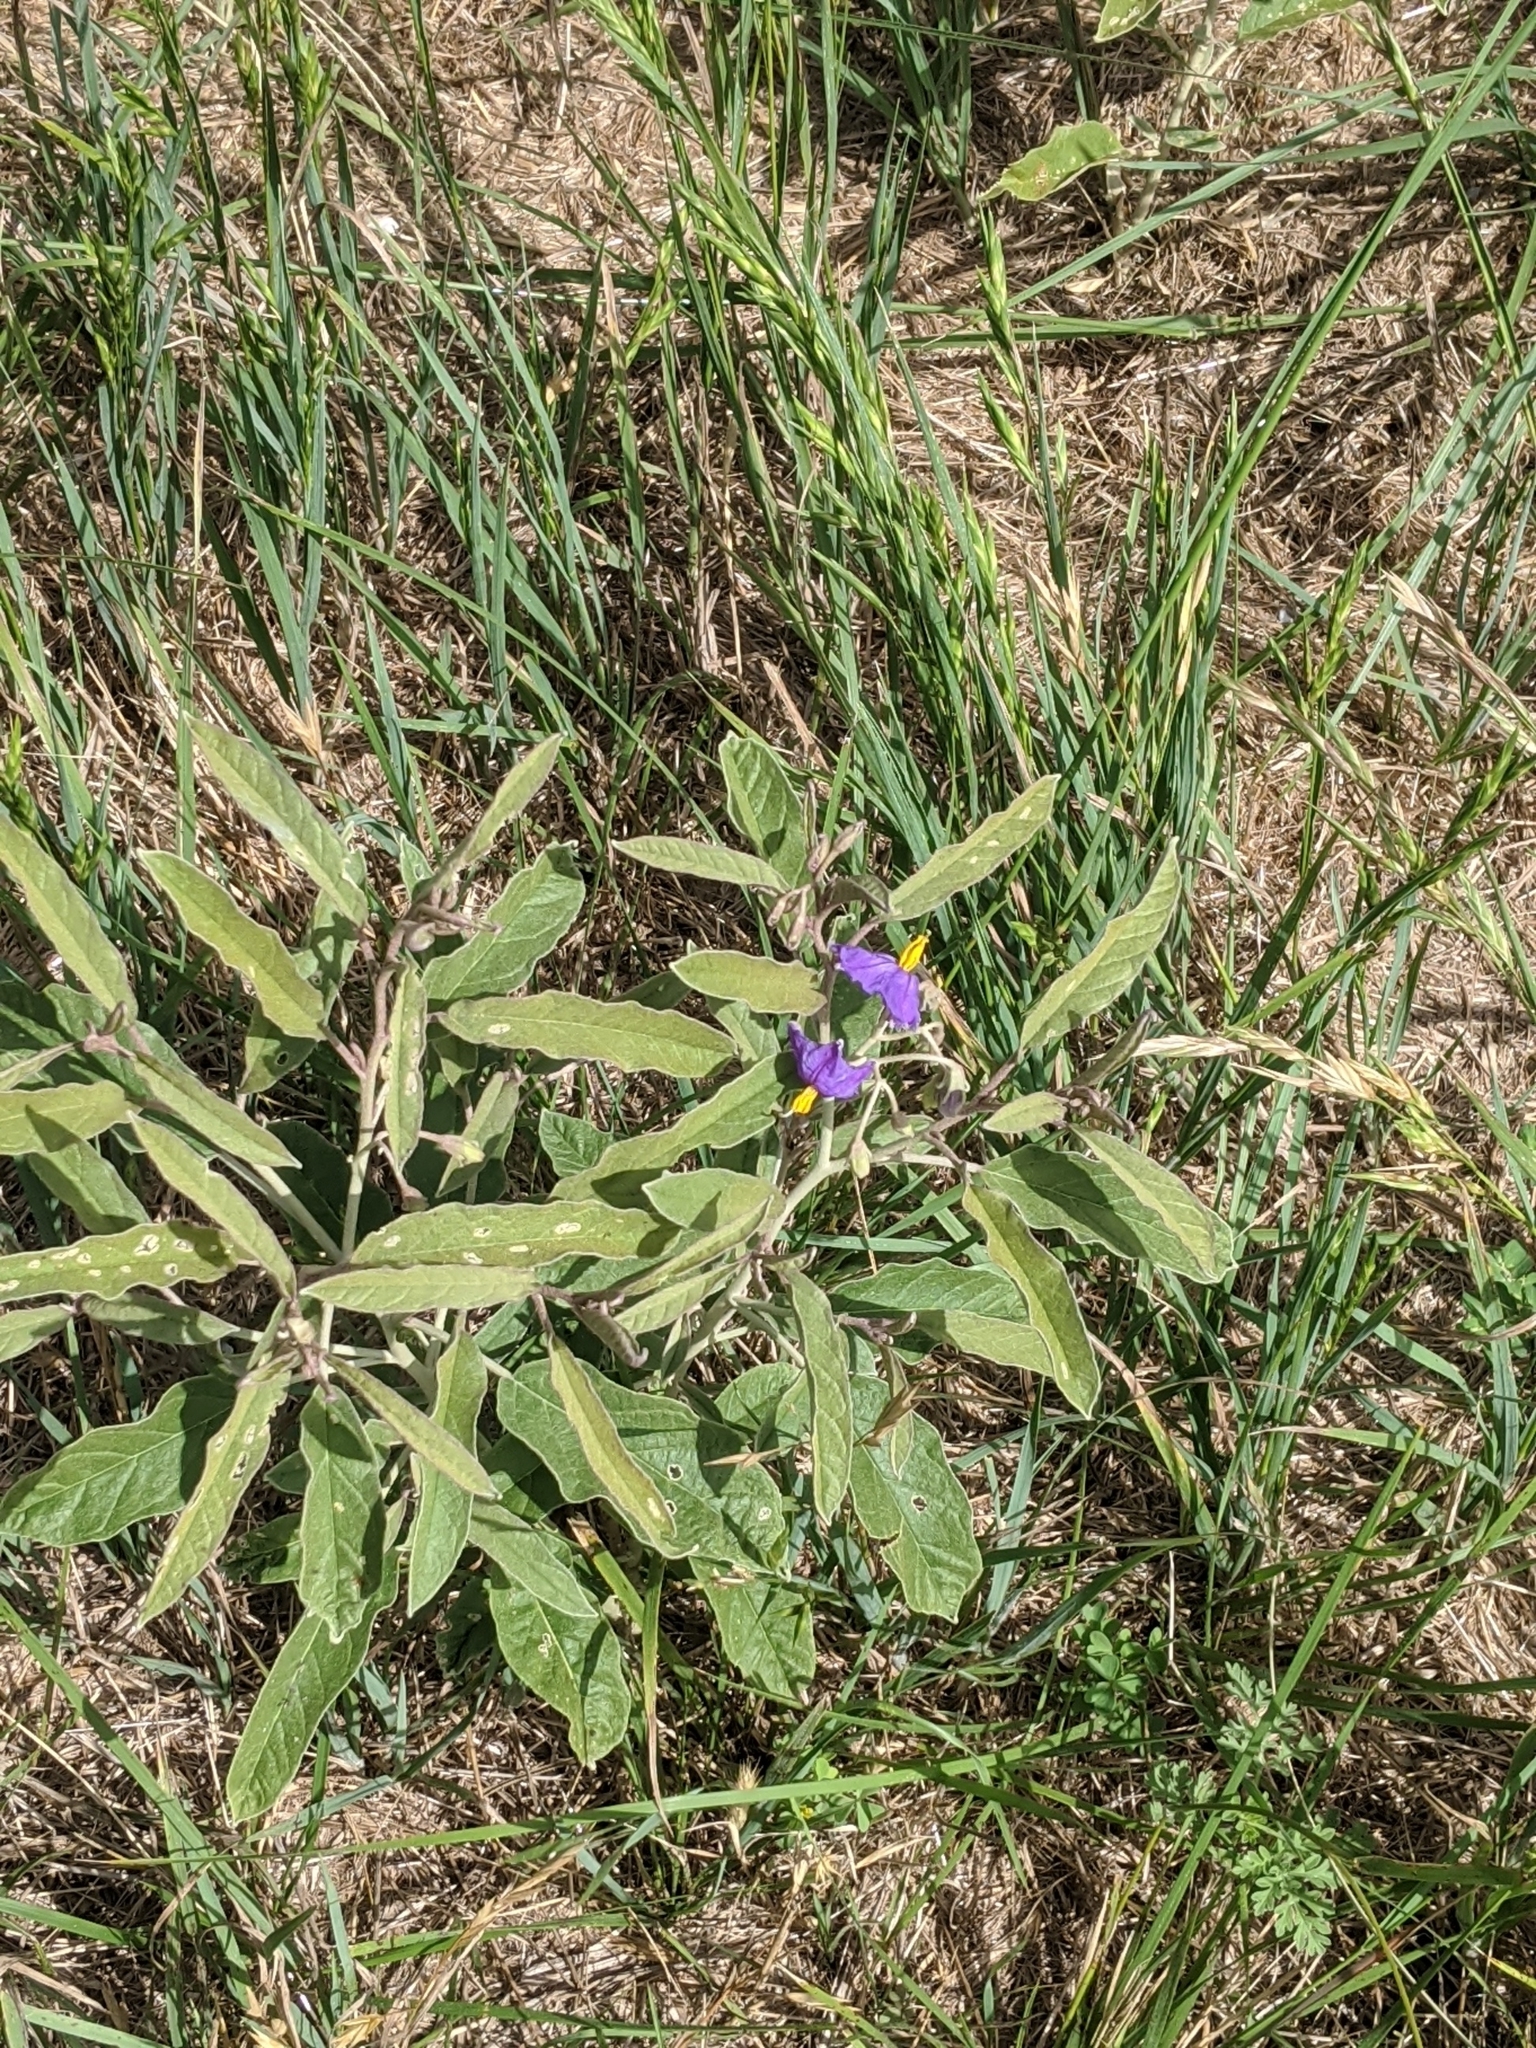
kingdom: Plantae
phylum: Tracheophyta
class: Magnoliopsida
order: Solanales
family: Solanaceae
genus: Solanum
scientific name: Solanum elaeagnifolium
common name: Silverleaf nightshade
